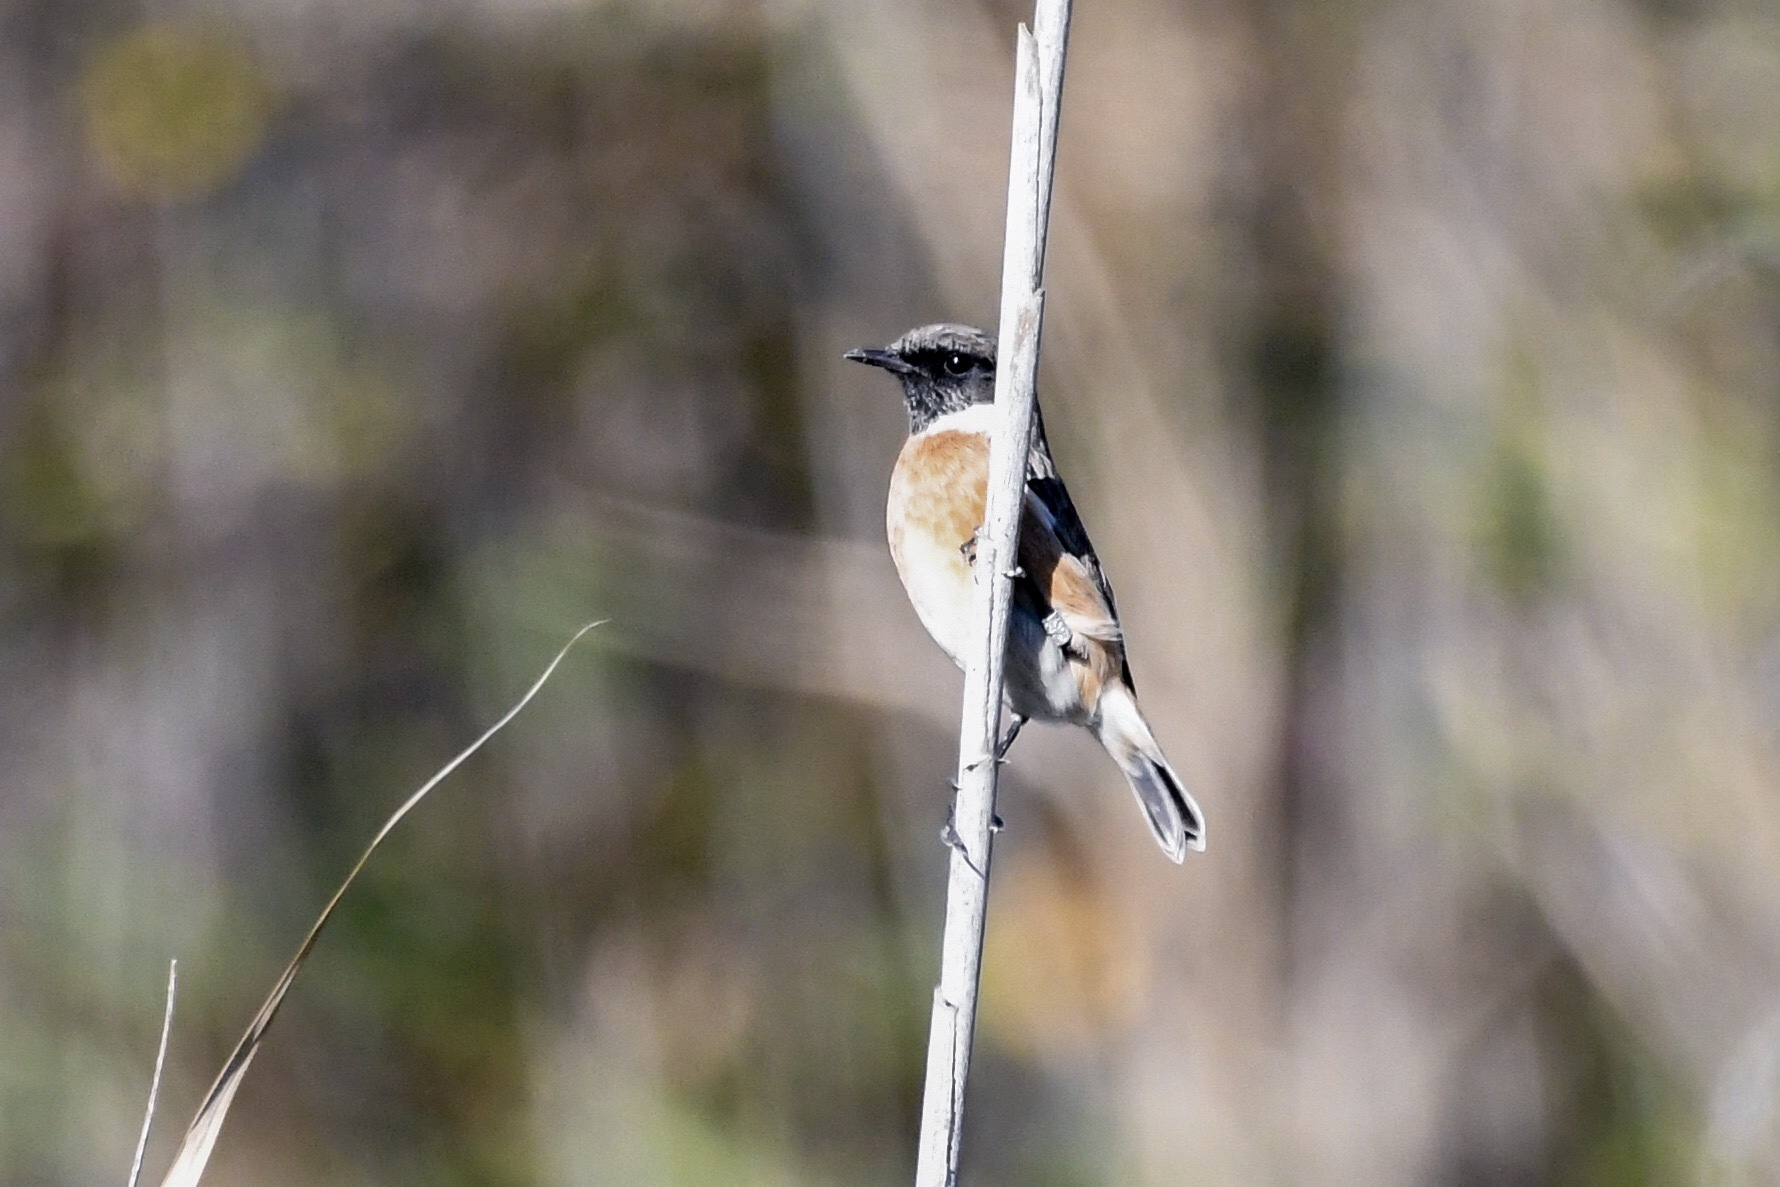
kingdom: Animalia
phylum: Chordata
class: Aves
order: Passeriformes
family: Muscicapidae
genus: Saxicola
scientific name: Saxicola rubicola
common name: European stonechat
